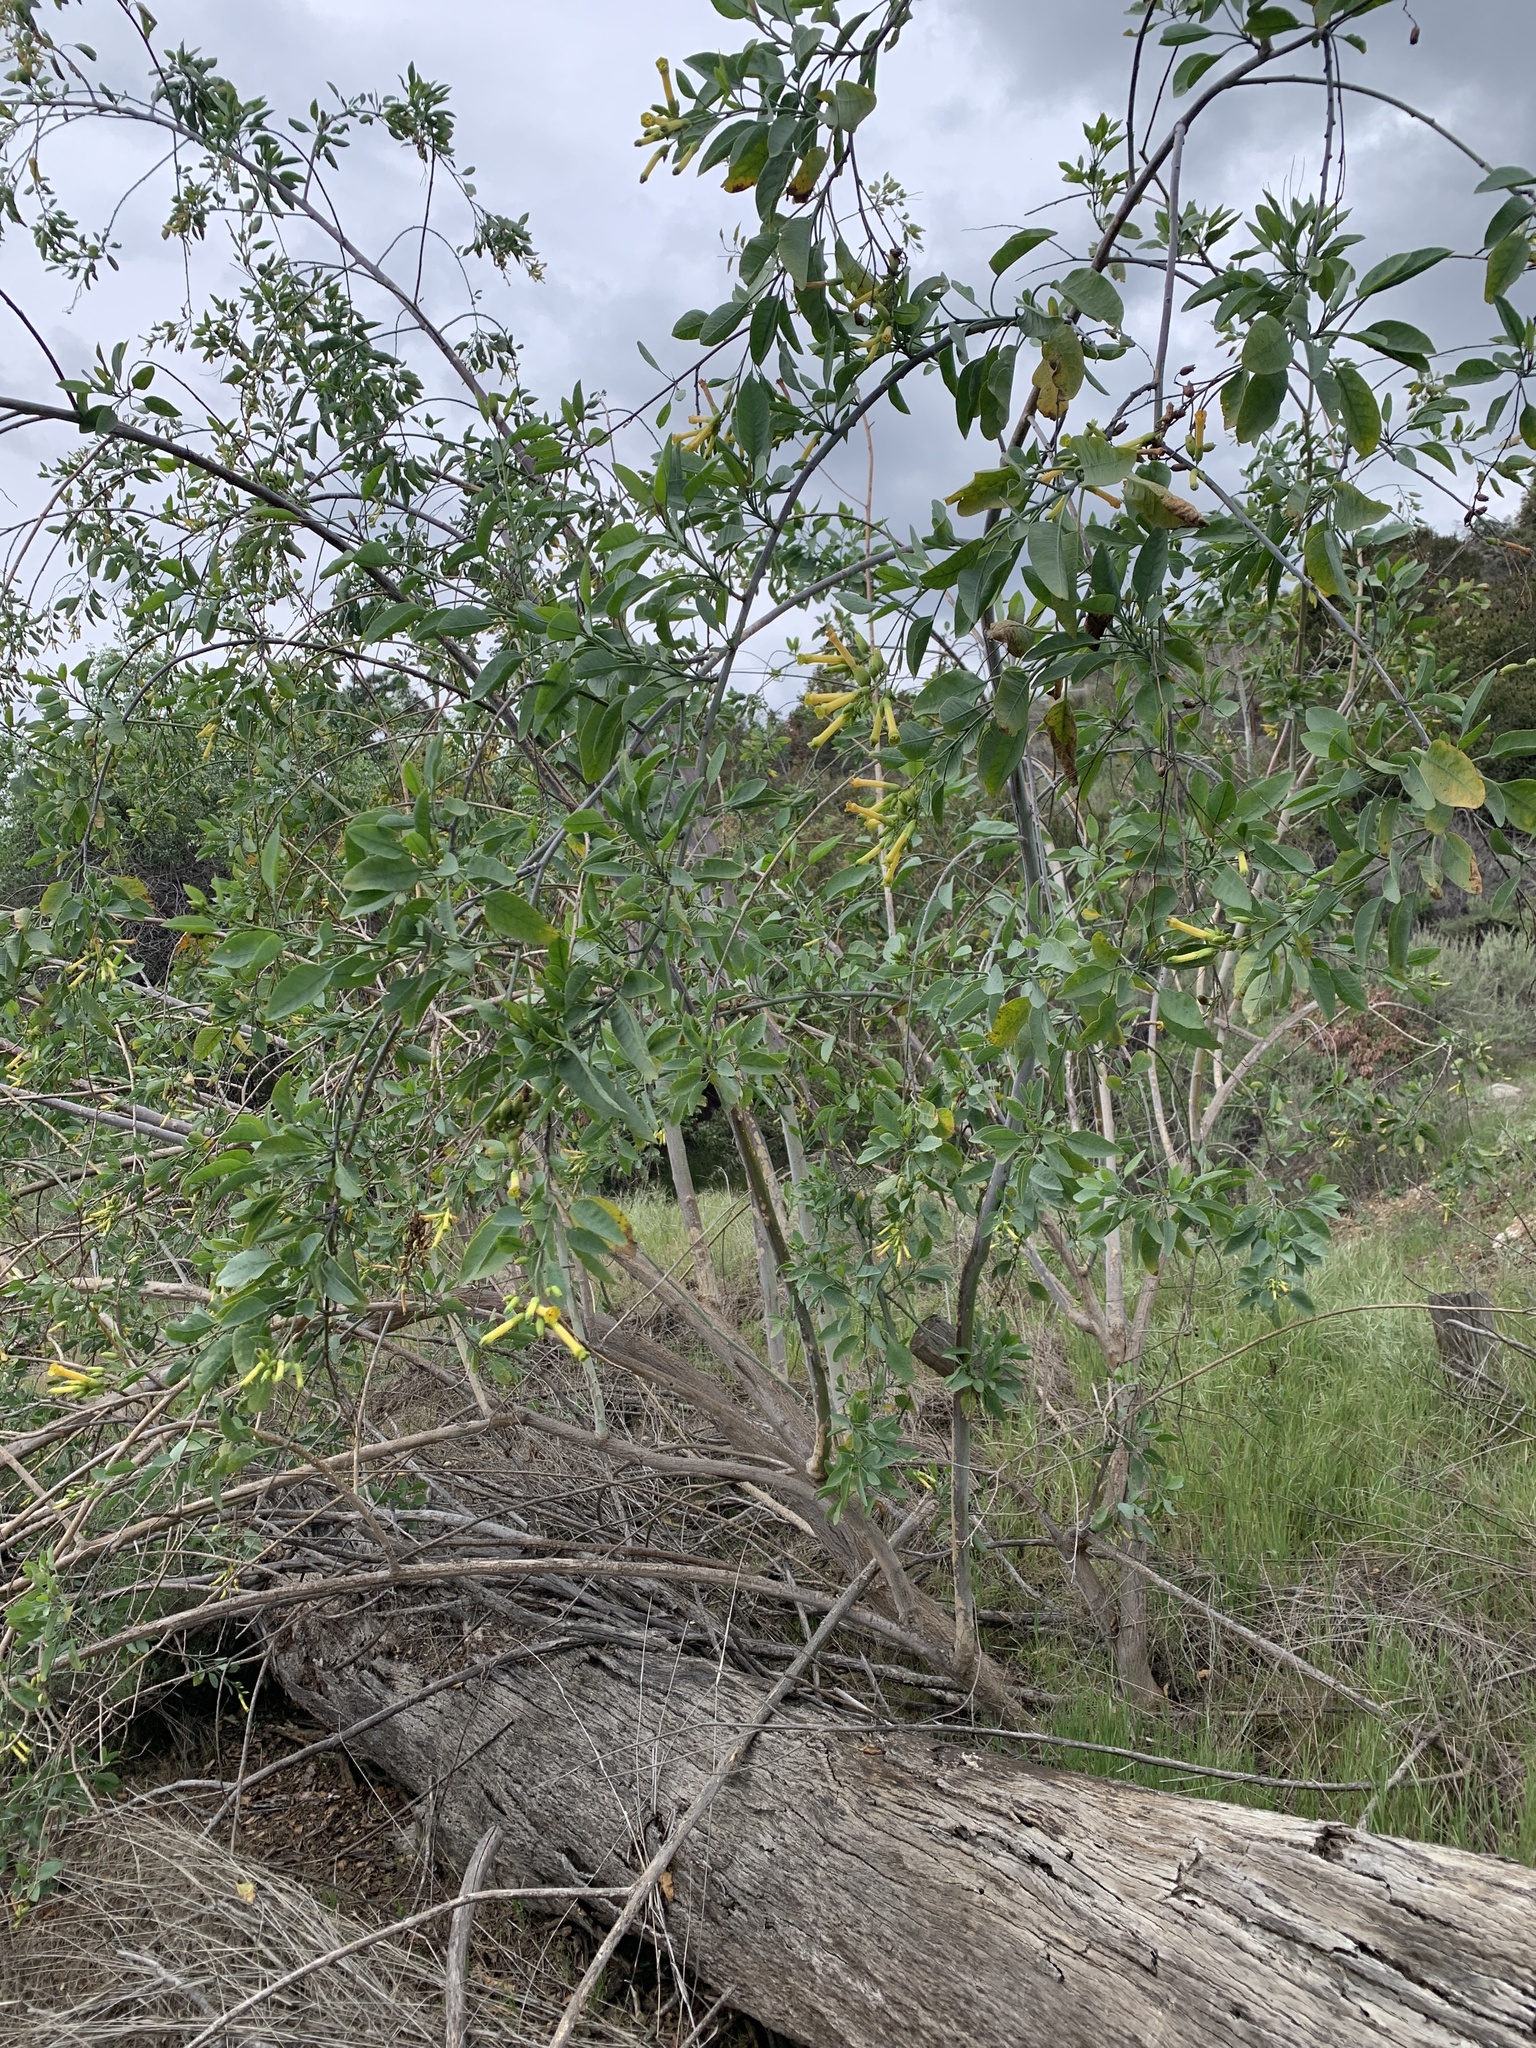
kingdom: Plantae
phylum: Tracheophyta
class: Magnoliopsida
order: Solanales
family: Solanaceae
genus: Nicotiana
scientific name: Nicotiana glauca
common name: Tree tobacco
